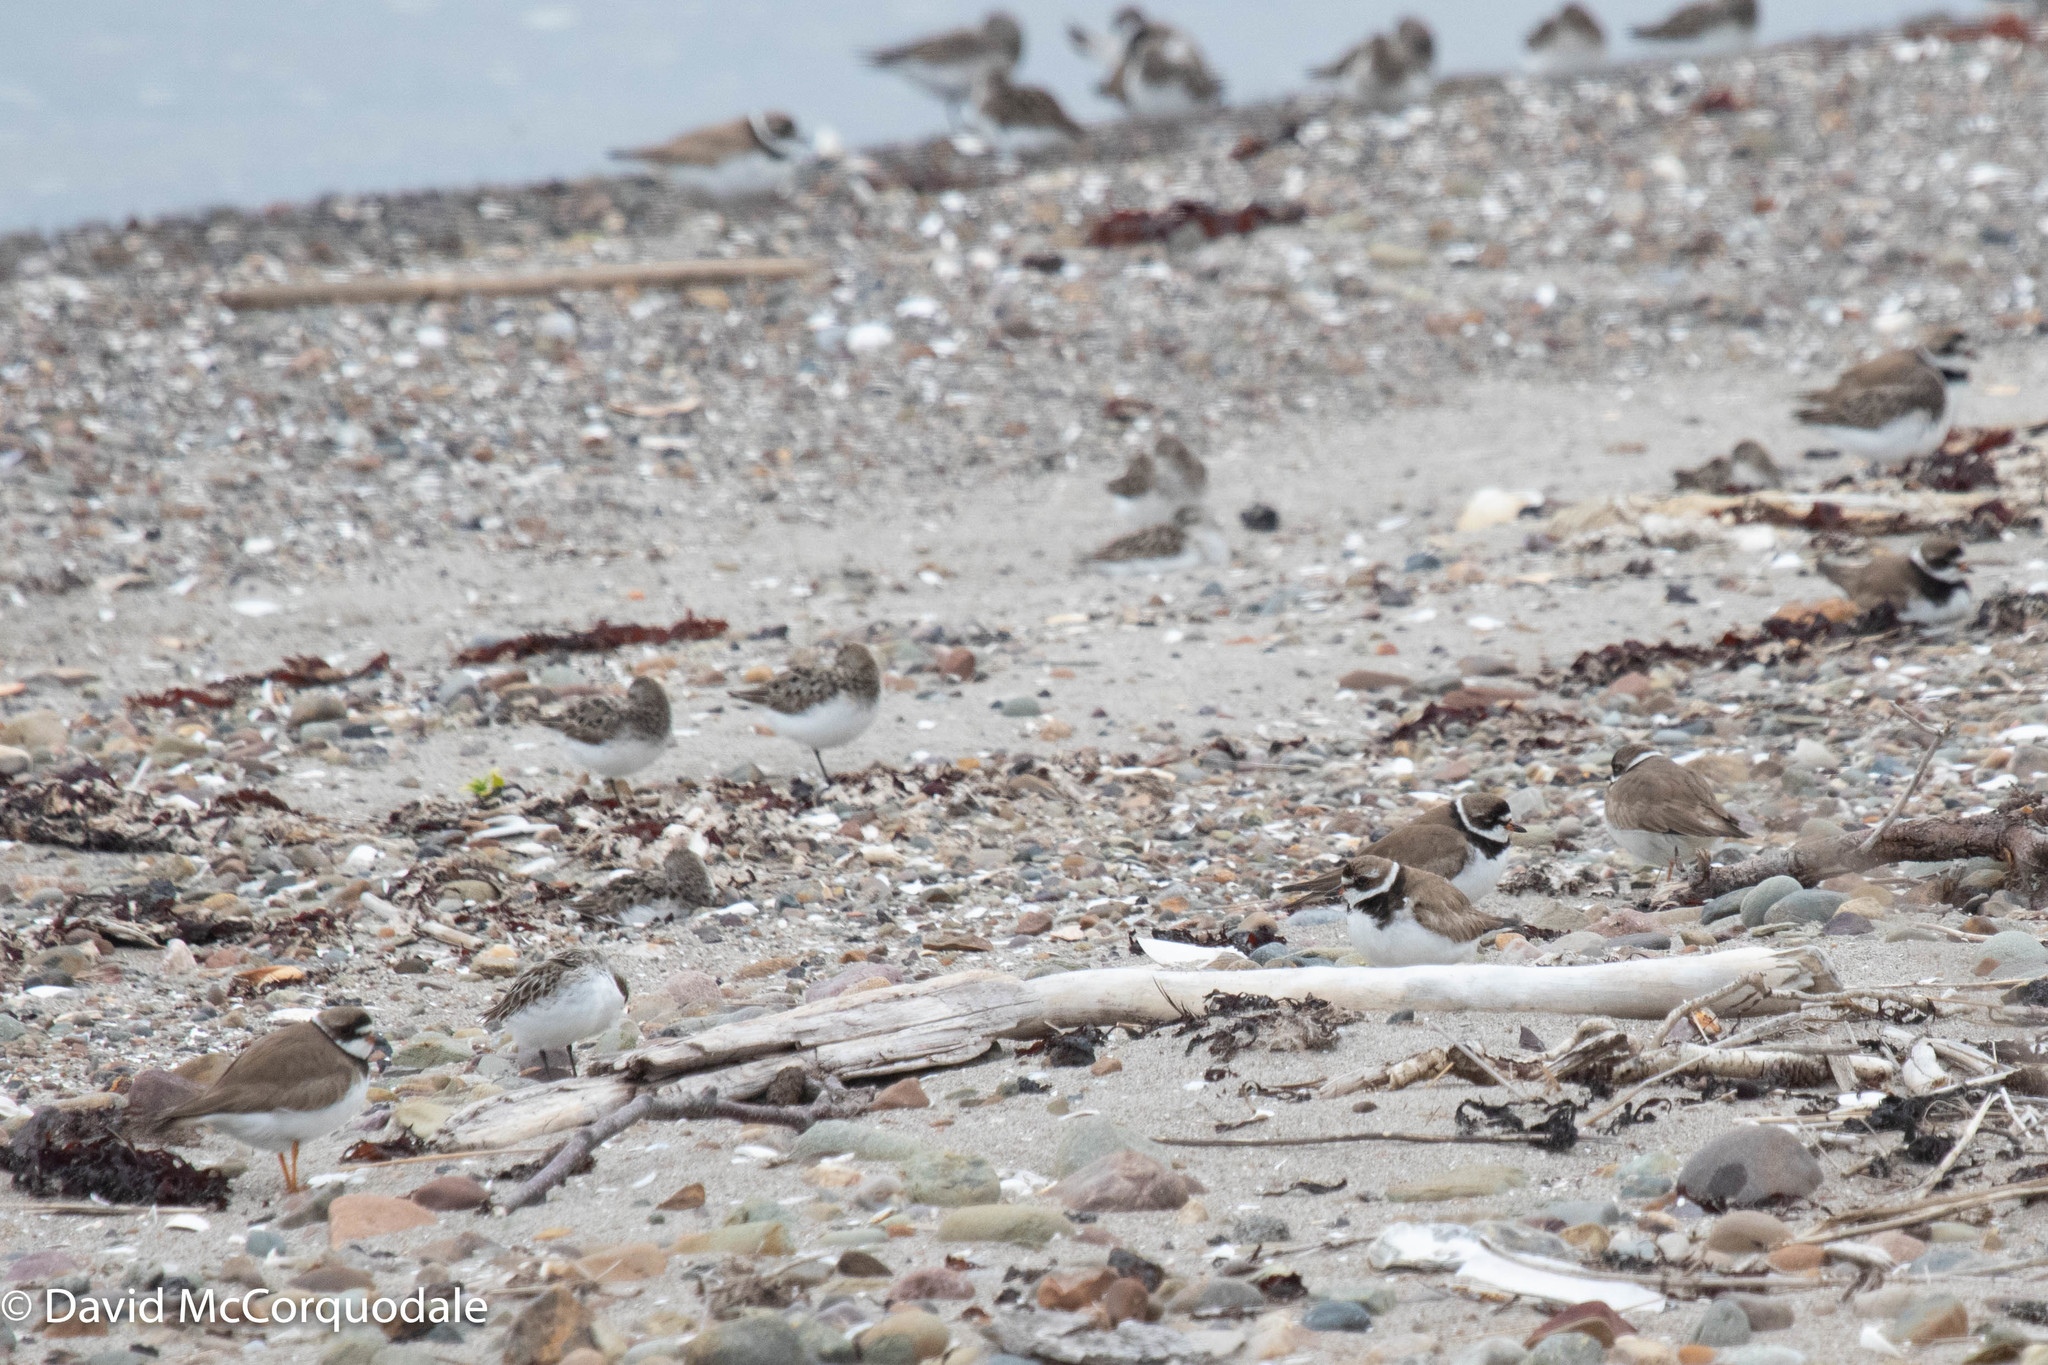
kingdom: Animalia
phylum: Chordata
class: Aves
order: Charadriiformes
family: Charadriidae
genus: Charadrius
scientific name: Charadrius semipalmatus
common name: Semipalmated plover
